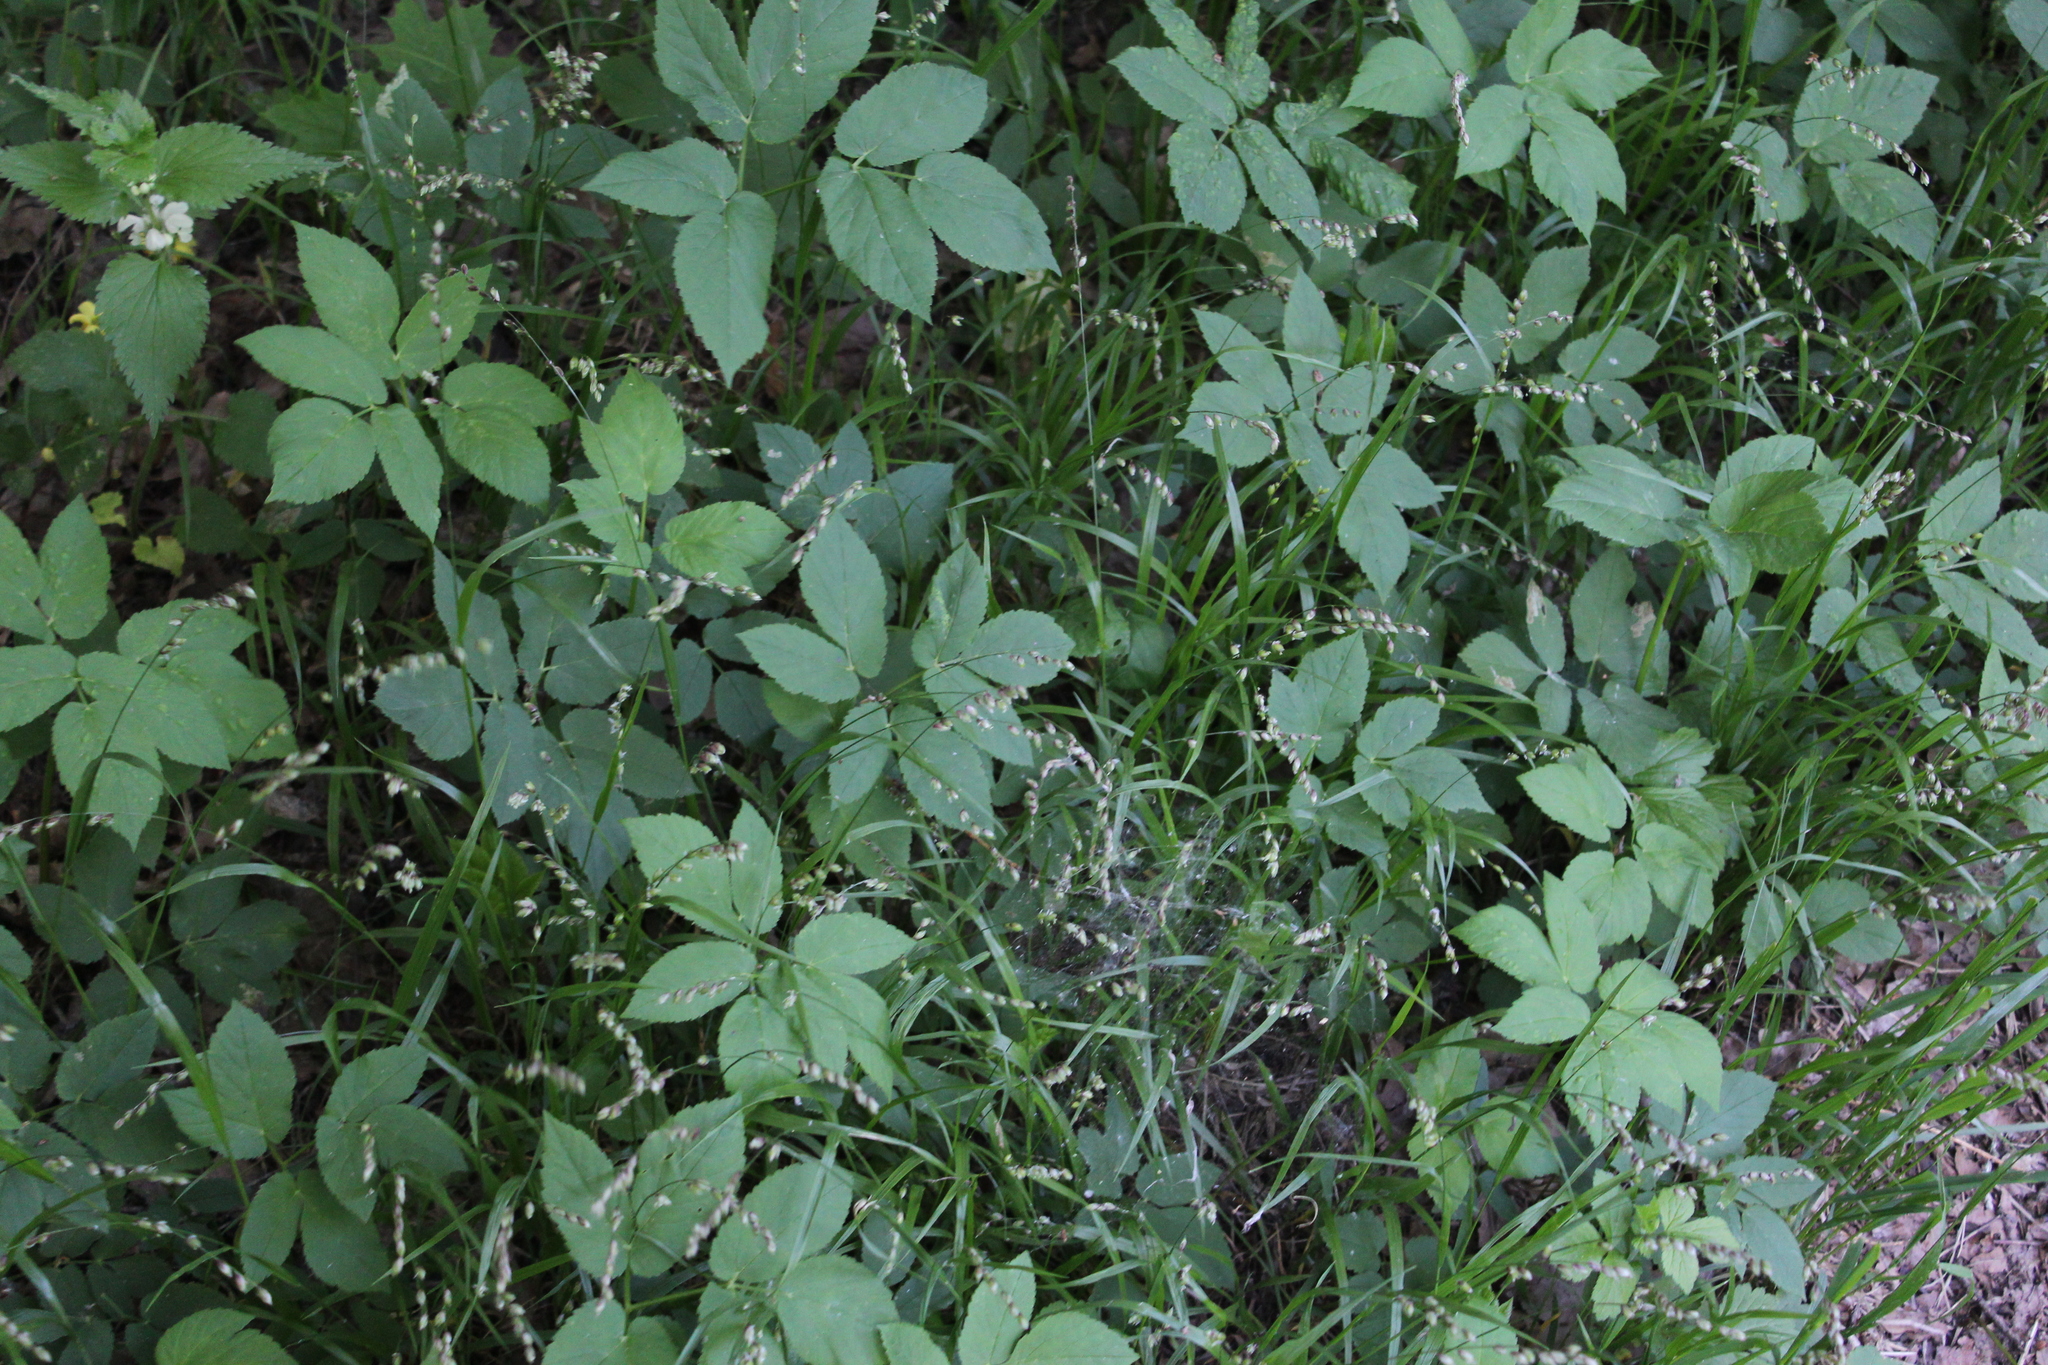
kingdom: Plantae
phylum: Tracheophyta
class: Liliopsida
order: Poales
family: Poaceae
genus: Melica
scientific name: Melica nutans
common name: Mountain melick
